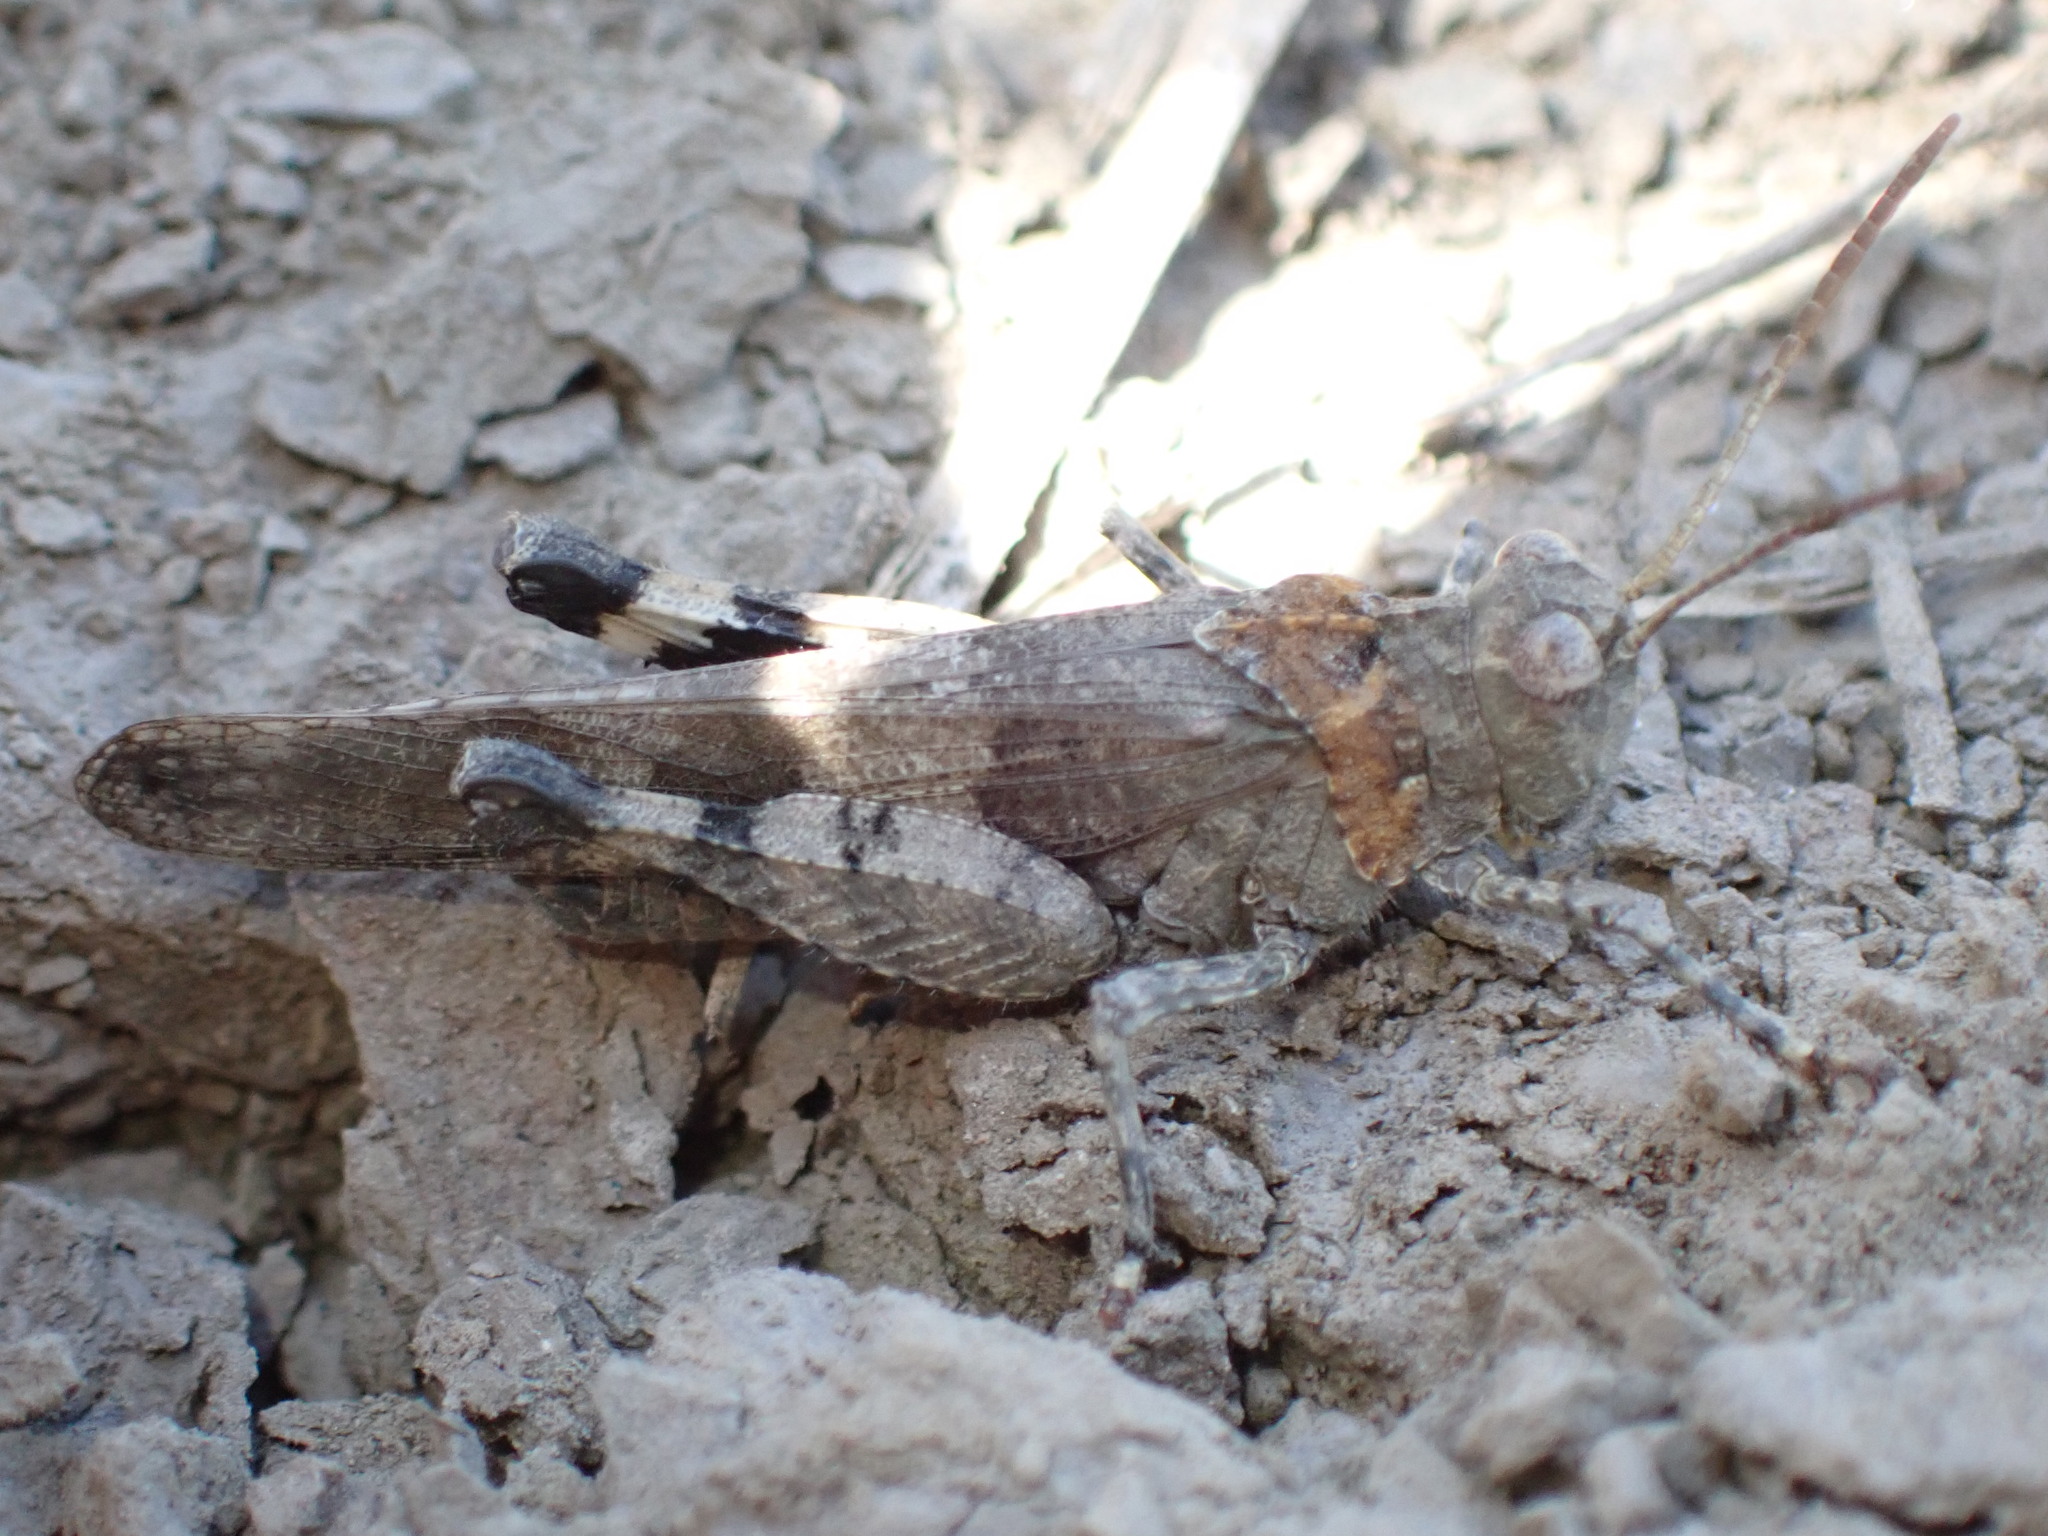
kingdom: Animalia
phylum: Arthropoda
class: Insecta
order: Orthoptera
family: Acrididae
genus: Oedipoda
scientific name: Oedipoda caerulescens
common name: Blue-winged grasshopper
